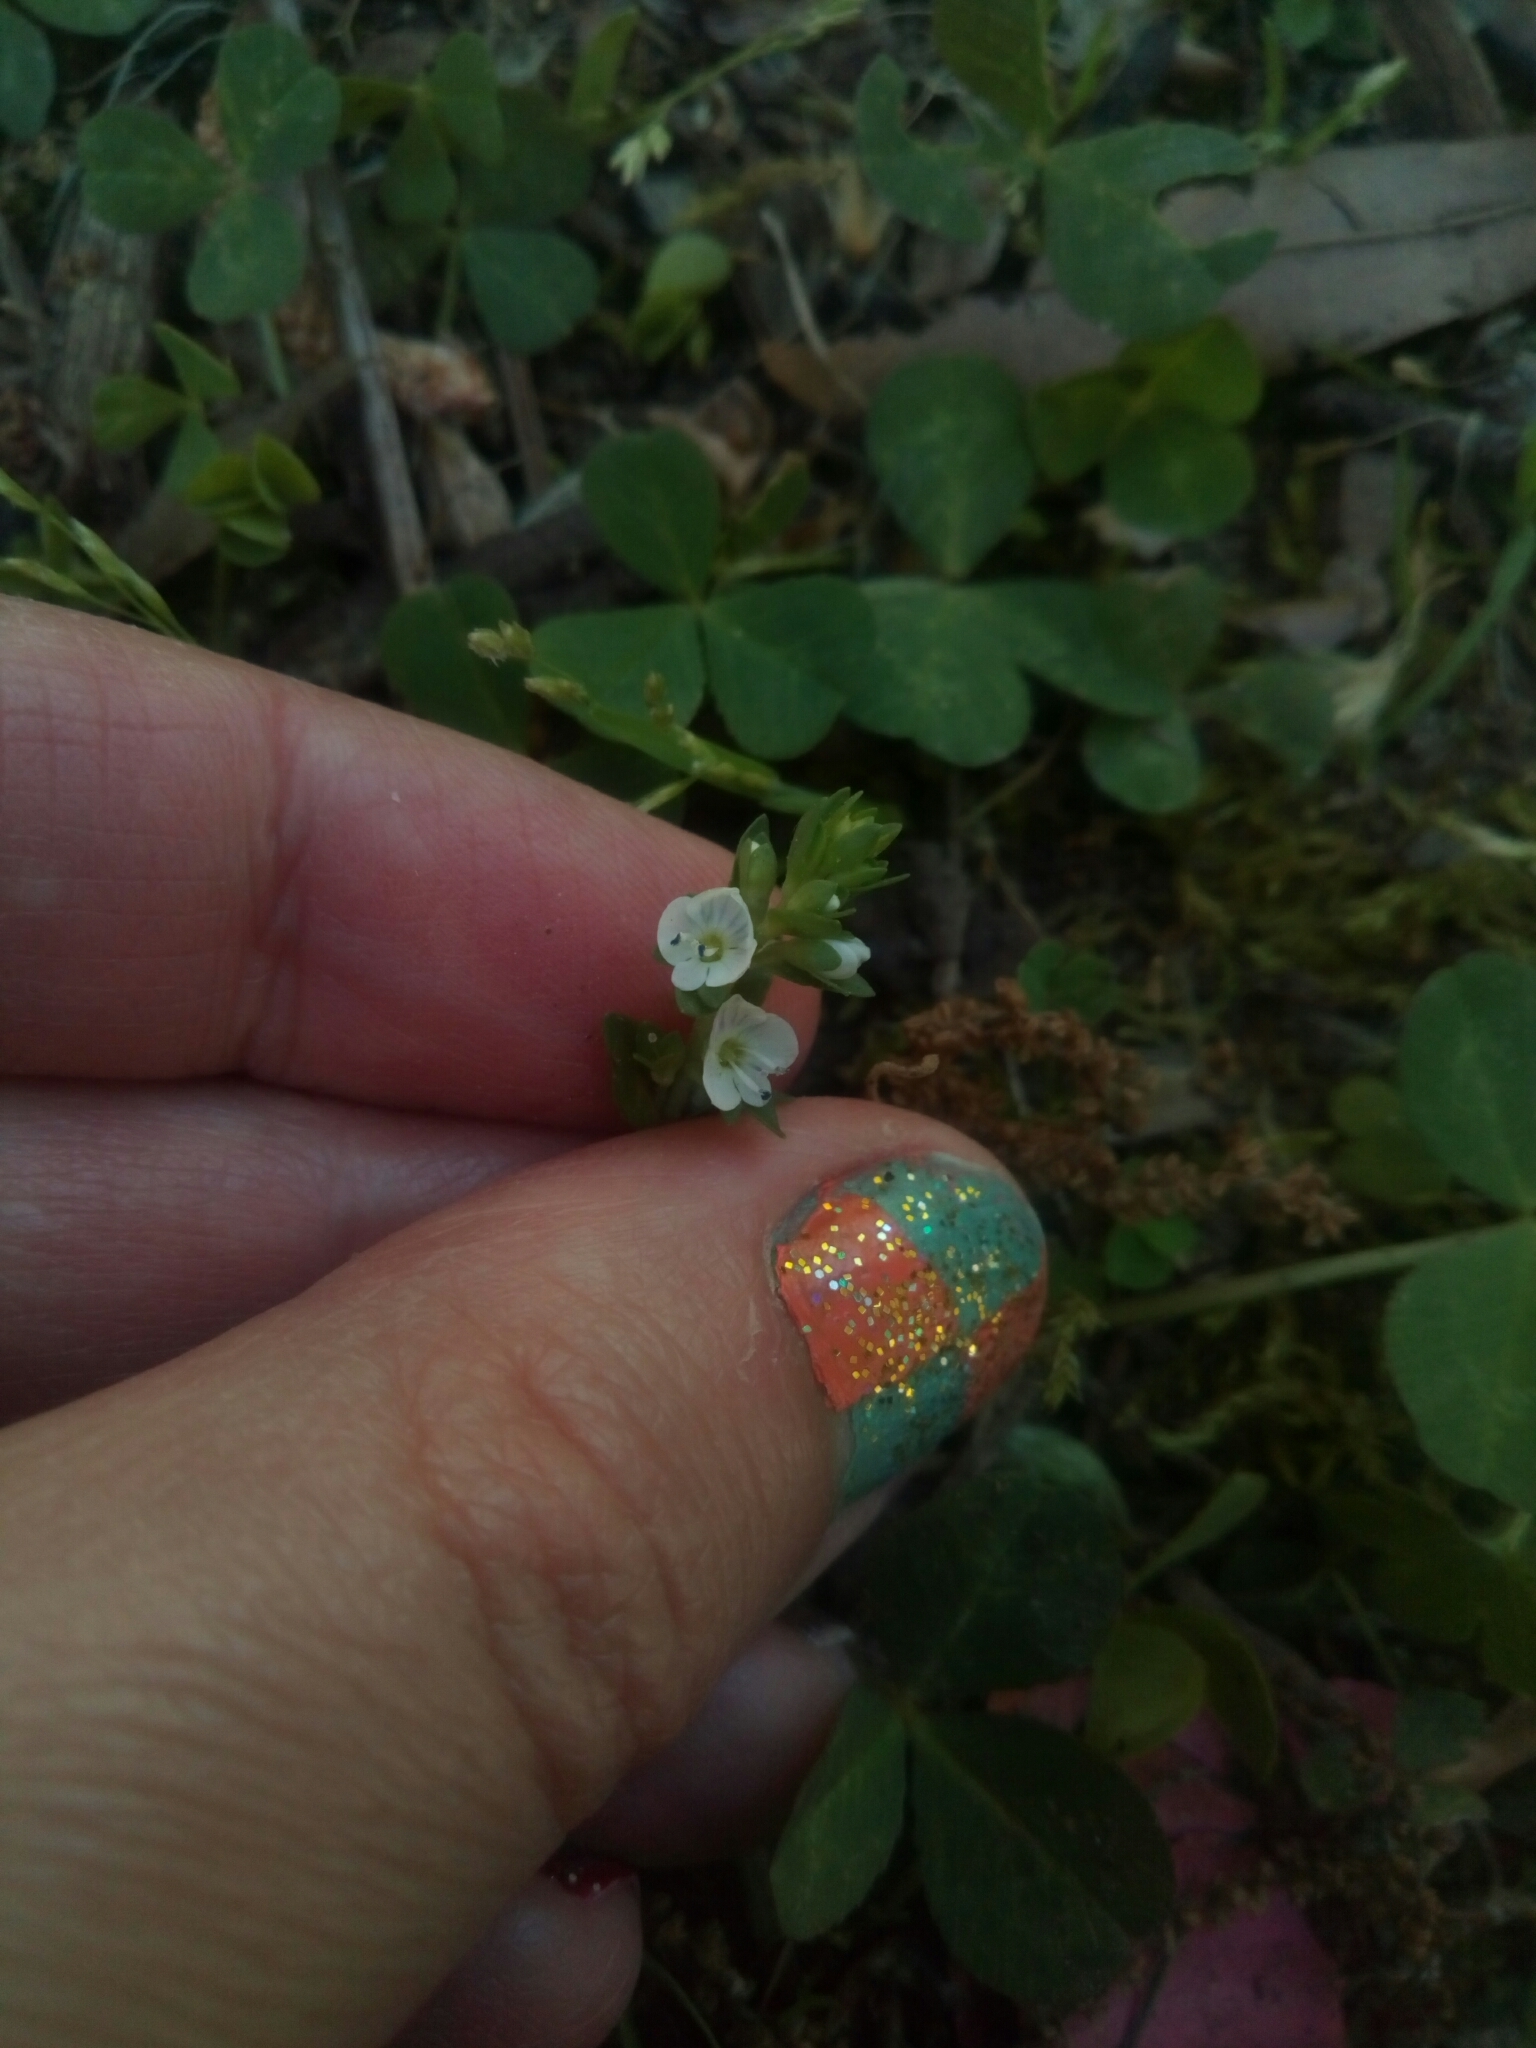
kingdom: Plantae
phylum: Tracheophyta
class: Magnoliopsida
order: Lamiales
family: Plantaginaceae
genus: Veronica
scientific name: Veronica serpyllifolia
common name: Thyme-leaved speedwell
